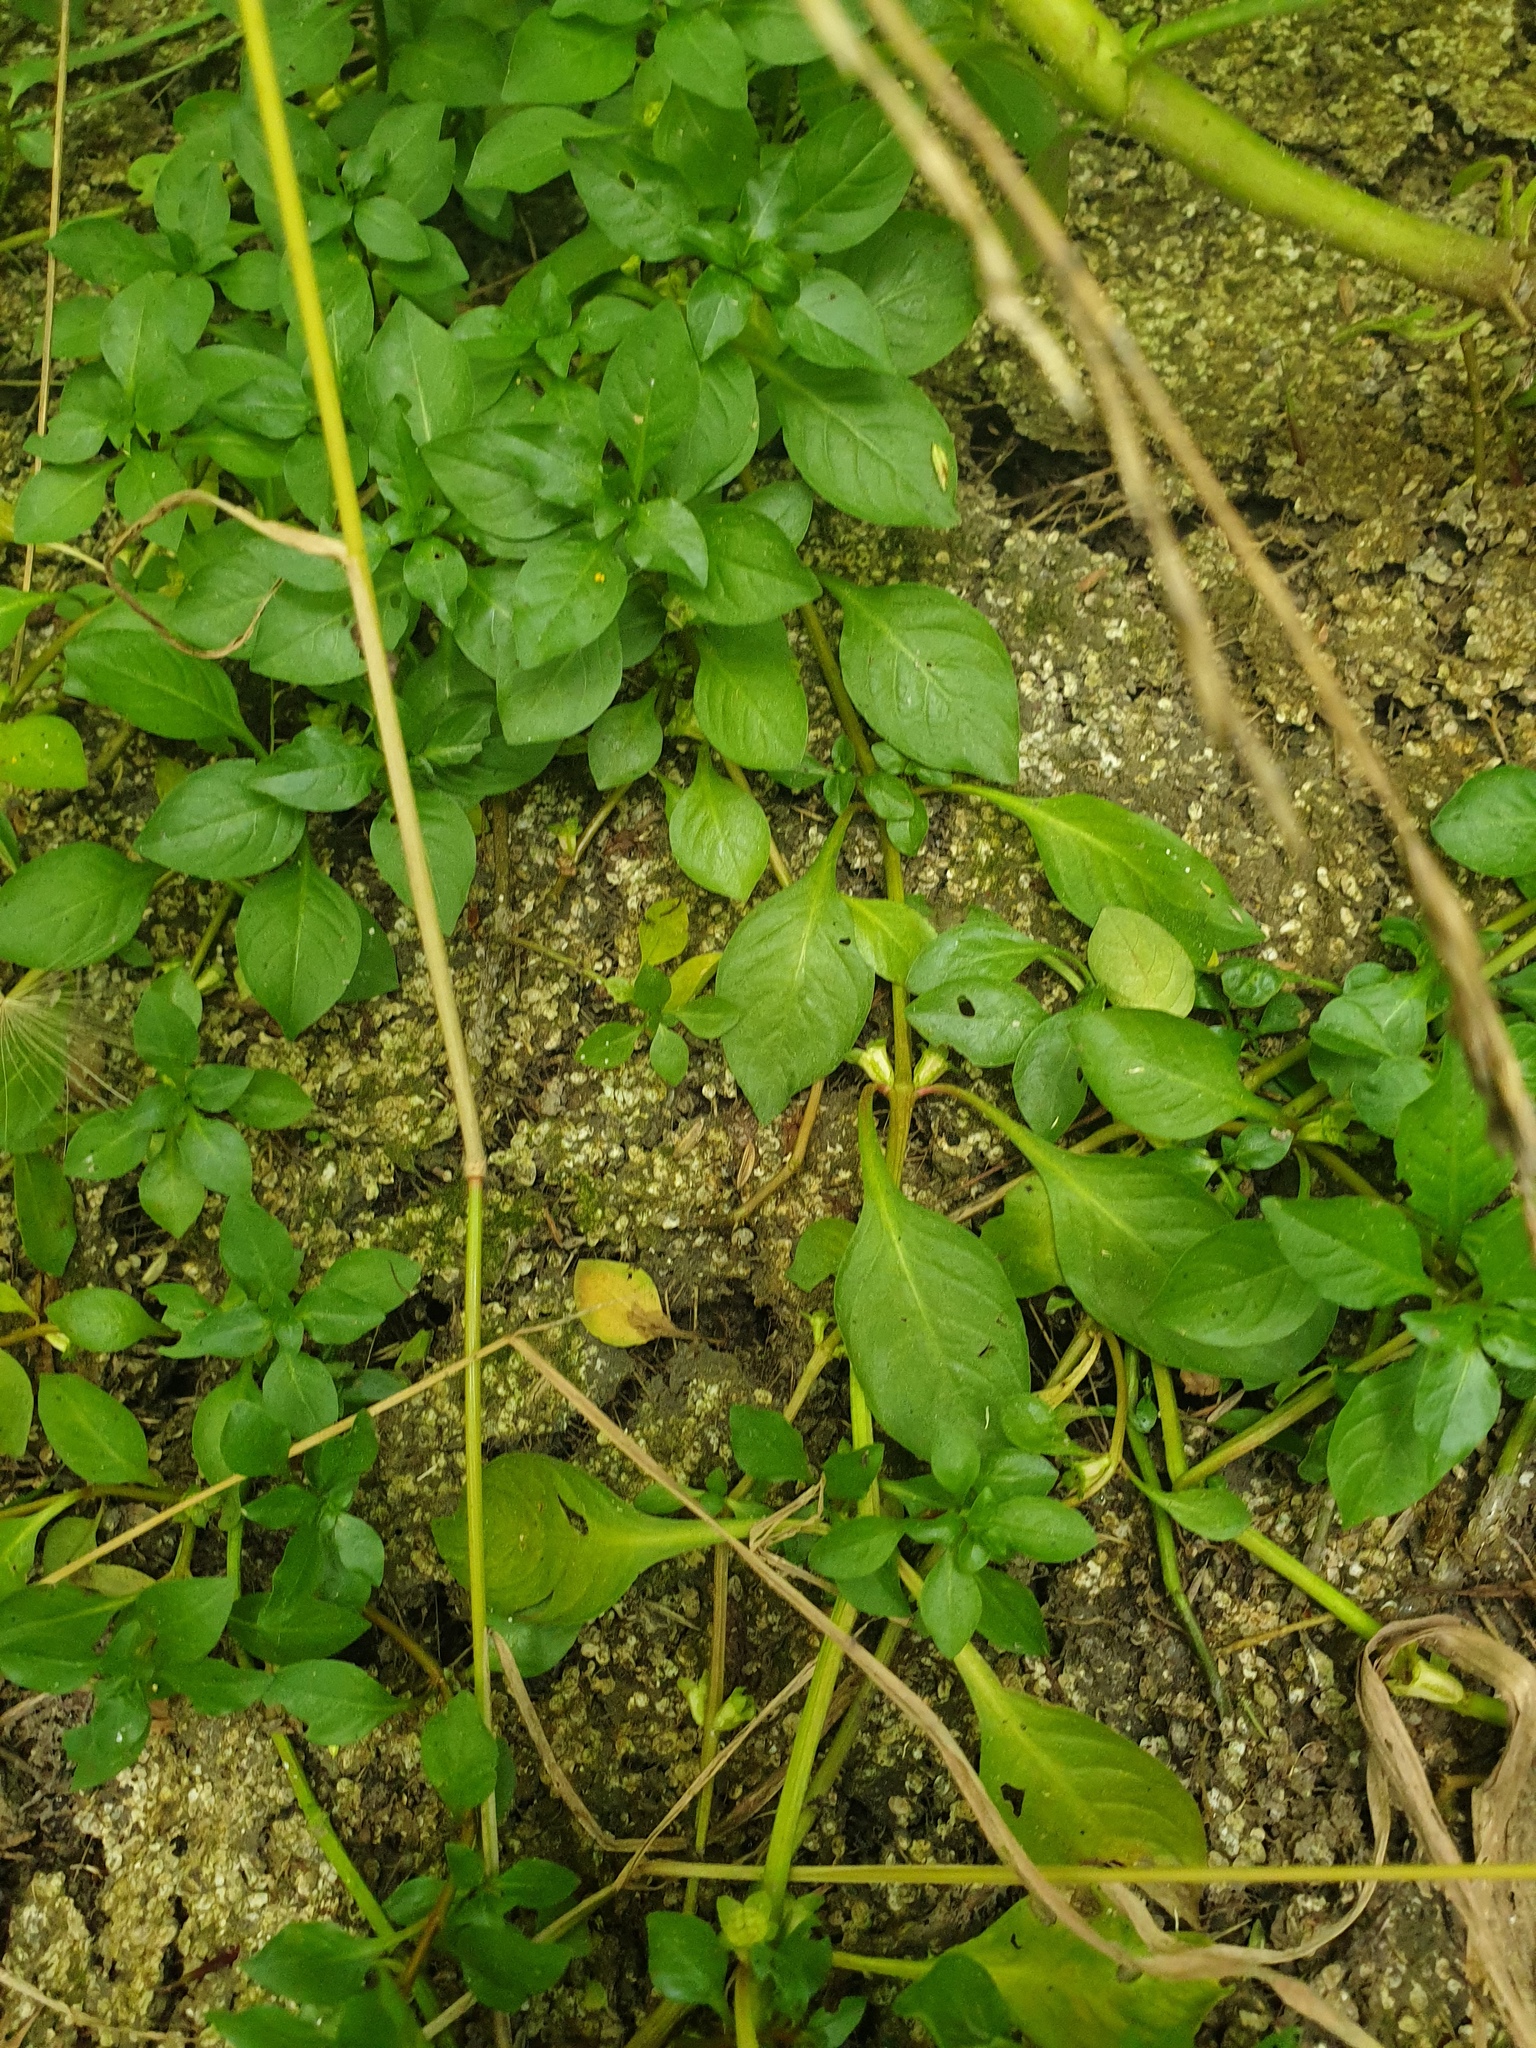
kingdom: Plantae
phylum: Tracheophyta
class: Magnoliopsida
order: Myrtales
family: Onagraceae
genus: Ludwigia
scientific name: Ludwigia palustris
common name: Hampshire-purslane
